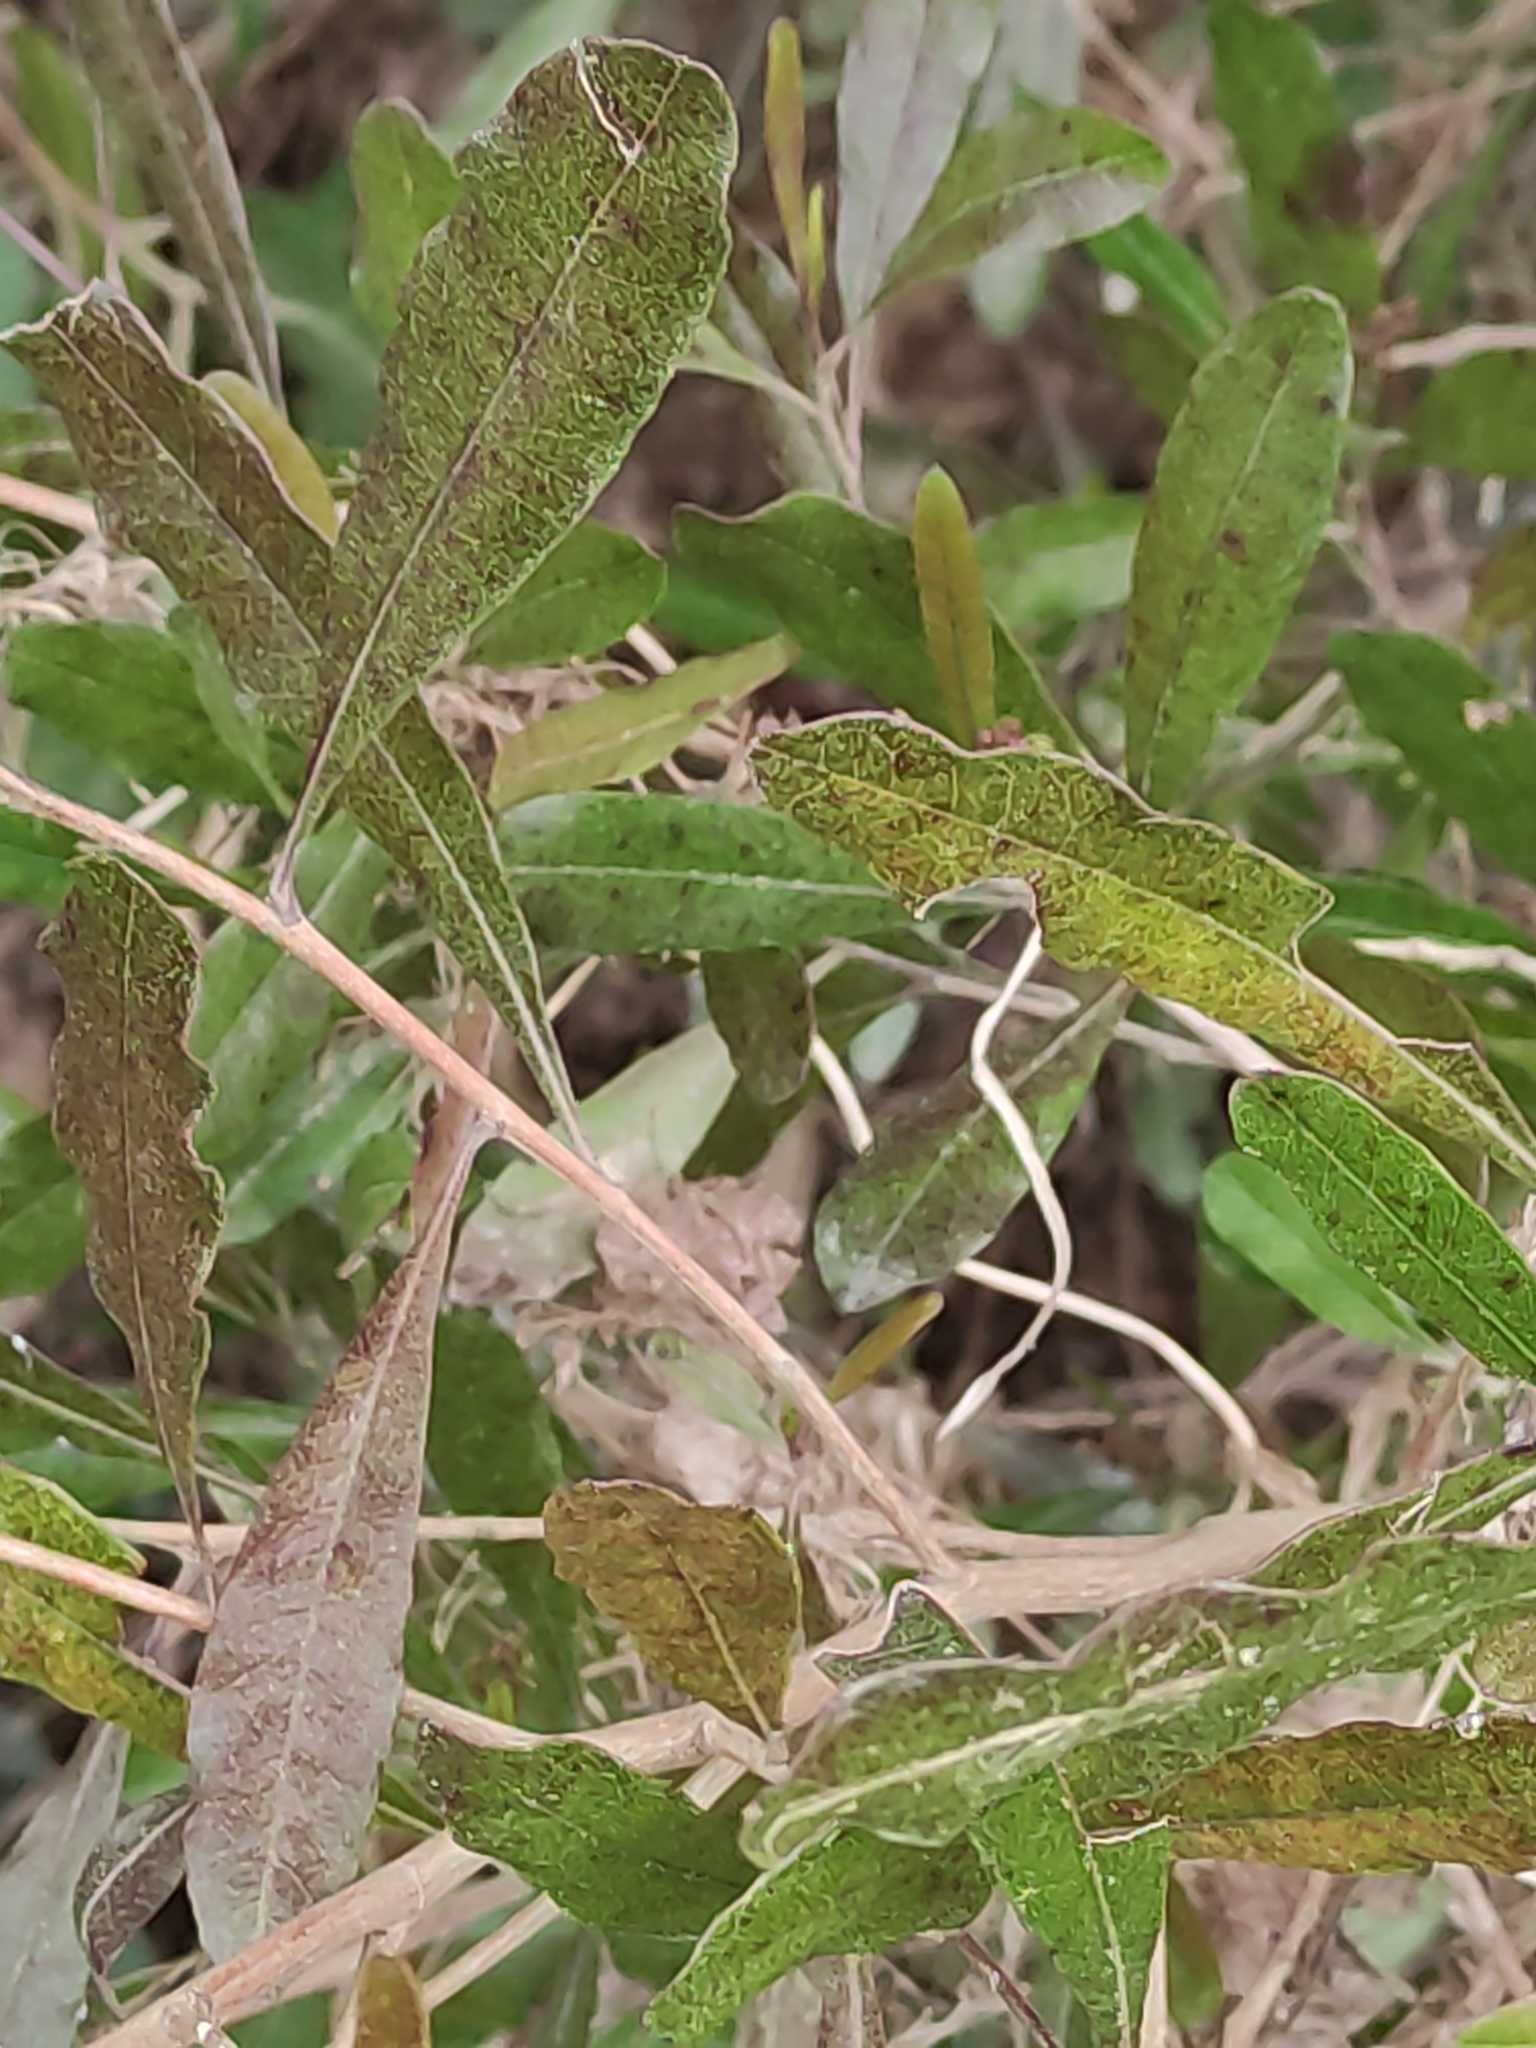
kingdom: Plantae
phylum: Tracheophyta
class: Magnoliopsida
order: Sapindales
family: Sapindaceae
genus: Dodonaea
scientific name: Dodonaea viscosa
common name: Hopbush
